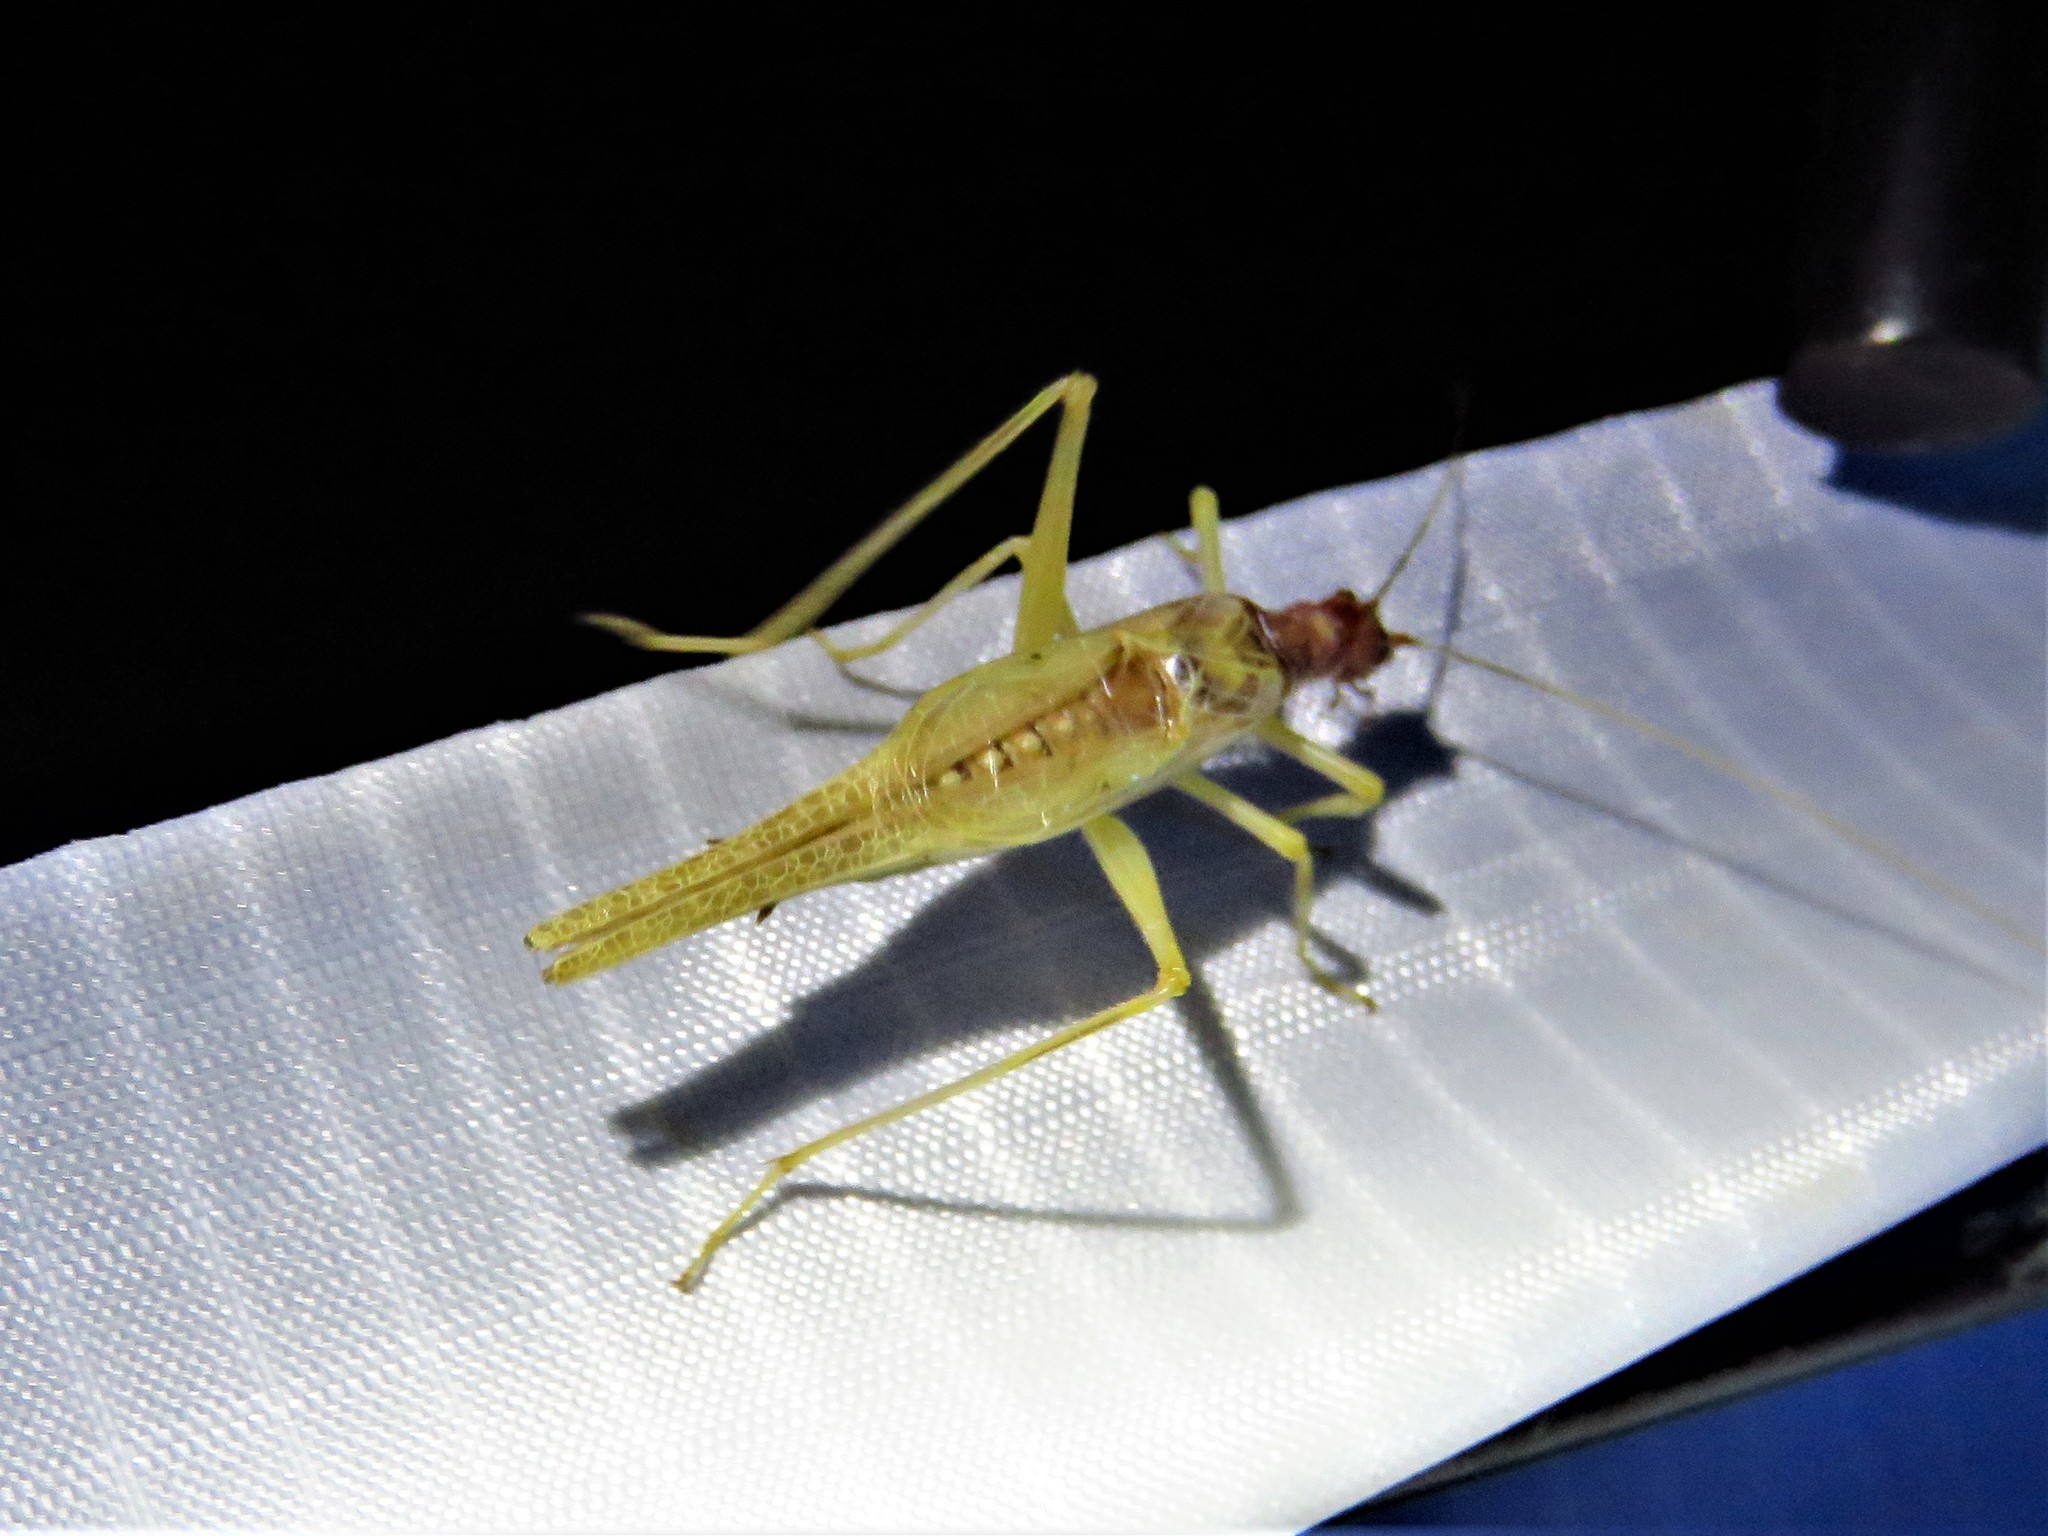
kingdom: Animalia
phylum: Arthropoda
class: Insecta
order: Orthoptera
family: Gryllidae
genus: Neoxabea
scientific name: Neoxabea bipunctata
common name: Two-spotted tree cricket
